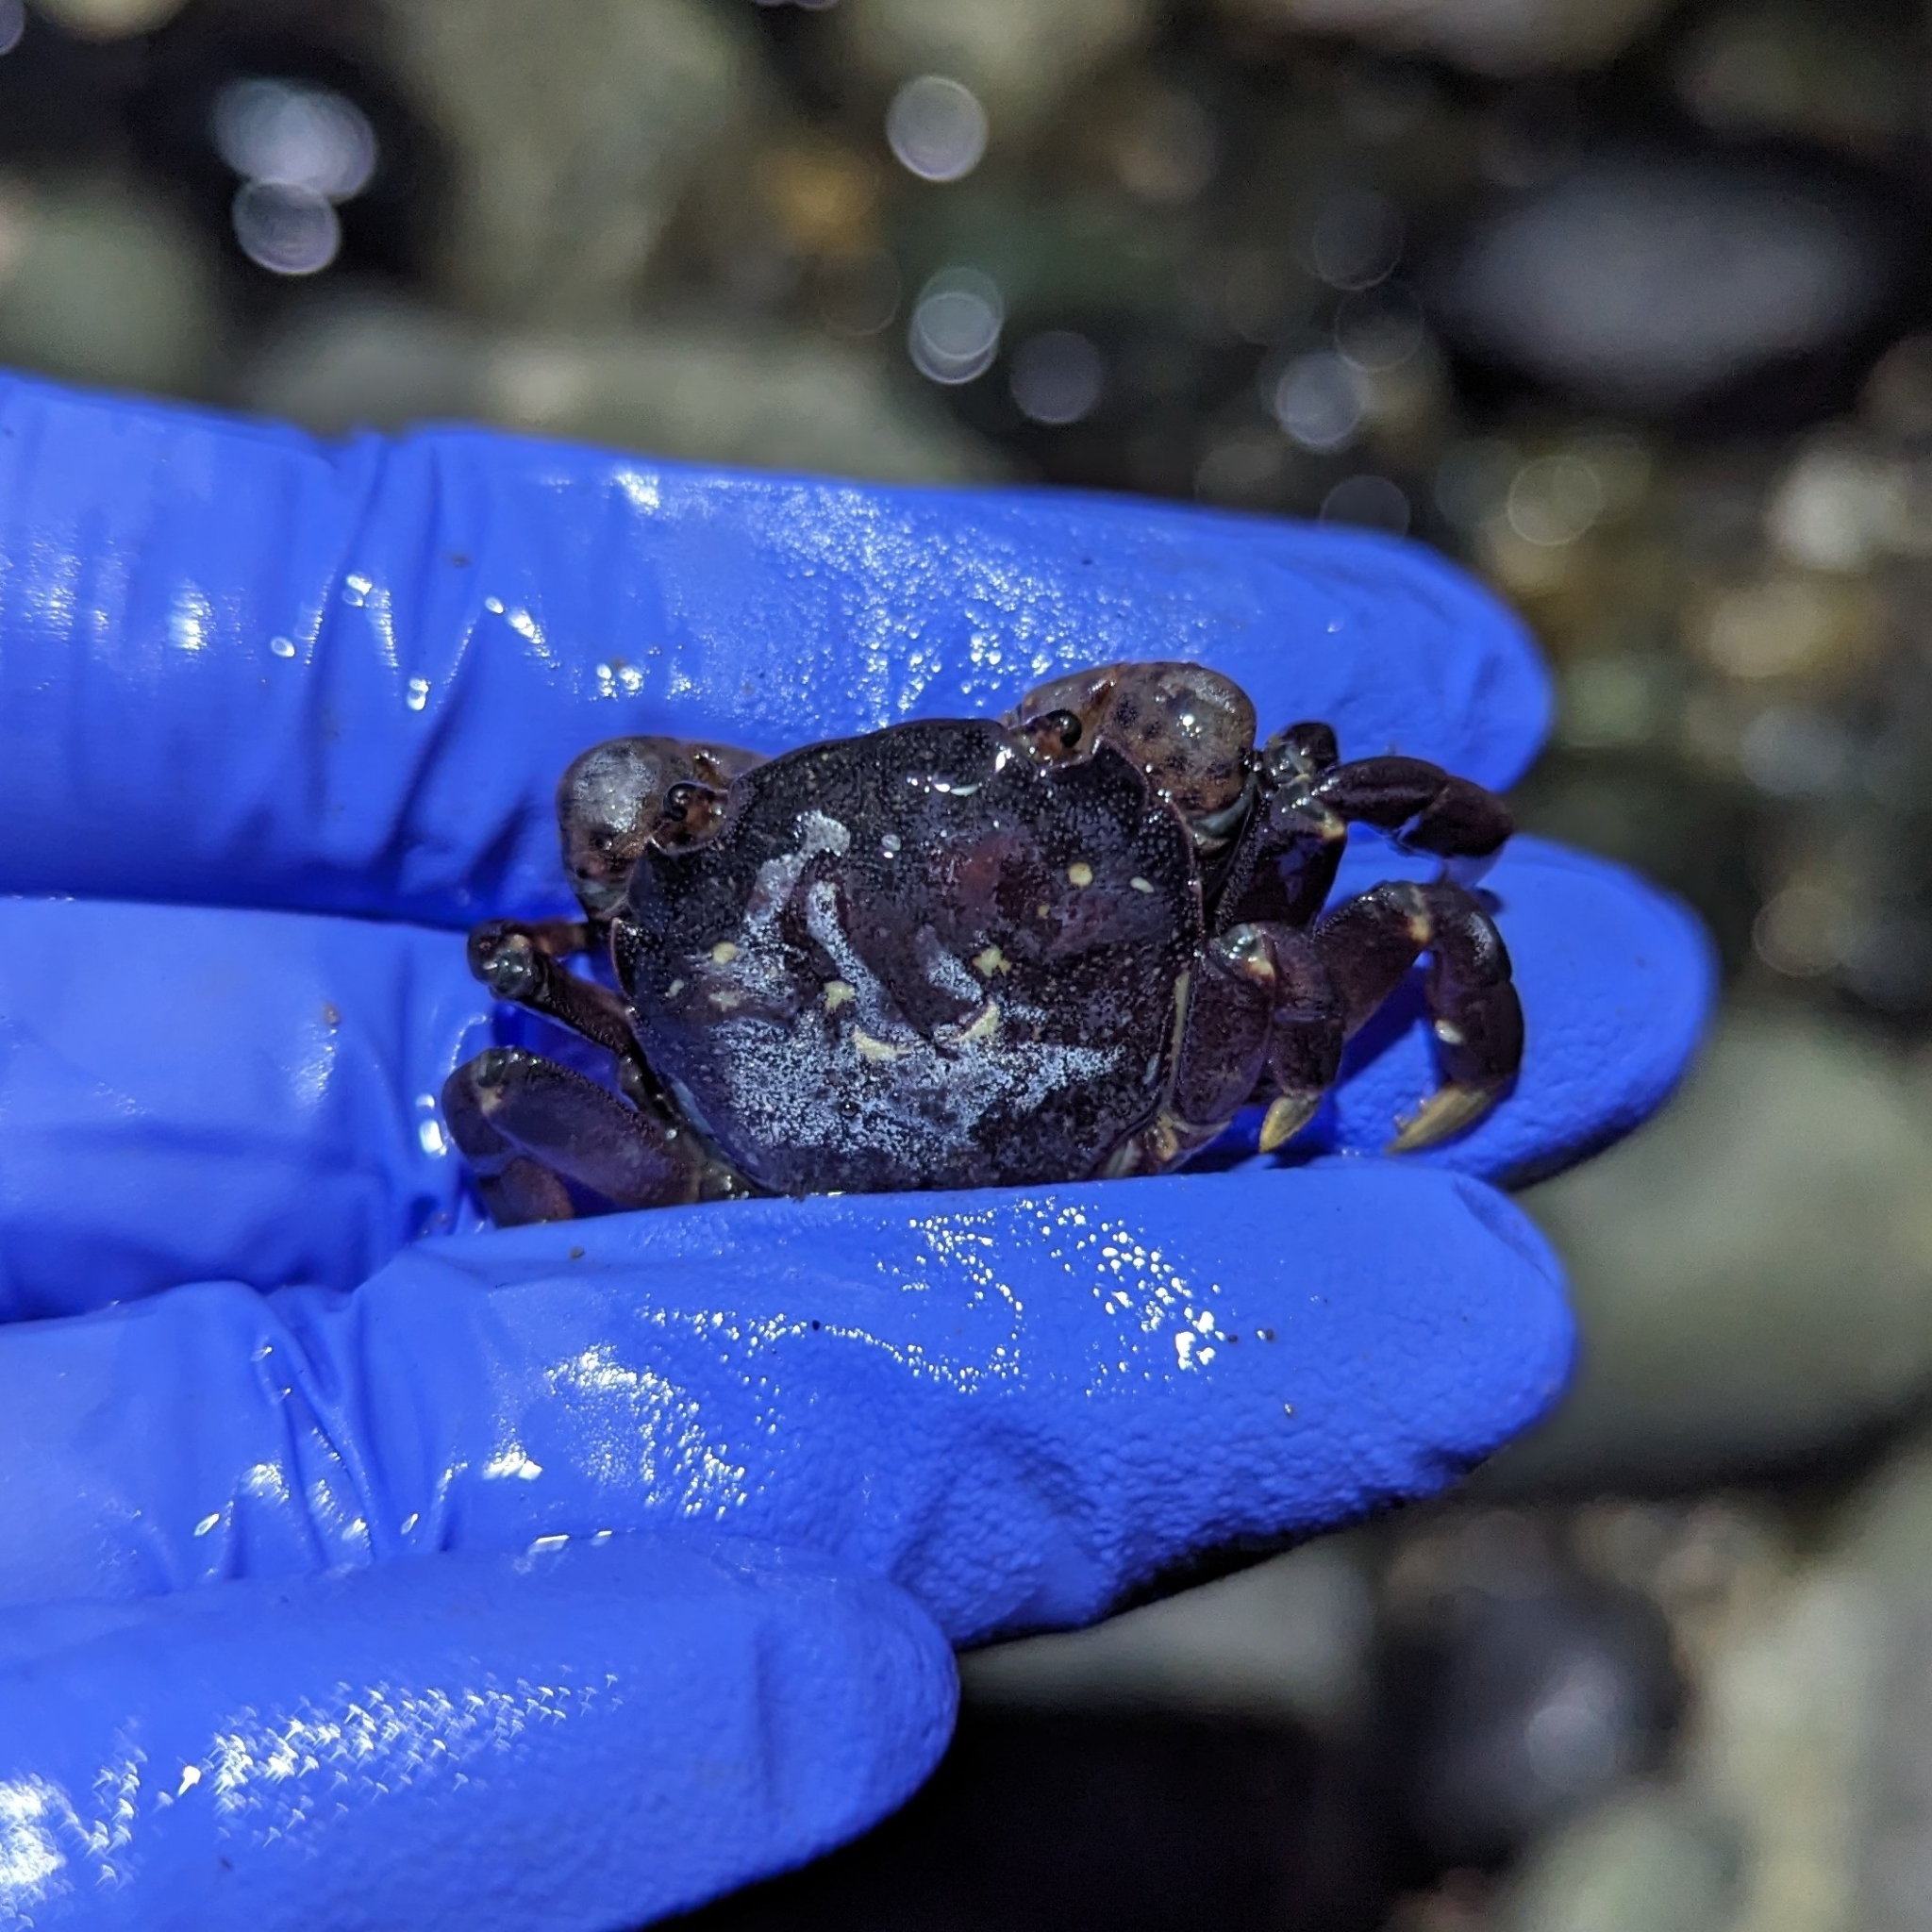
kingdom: Animalia
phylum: Arthropoda
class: Malacostraca
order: Decapoda
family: Varunidae
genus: Hemigrapsus
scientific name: Hemigrapsus nudus
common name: Purple shore crab
